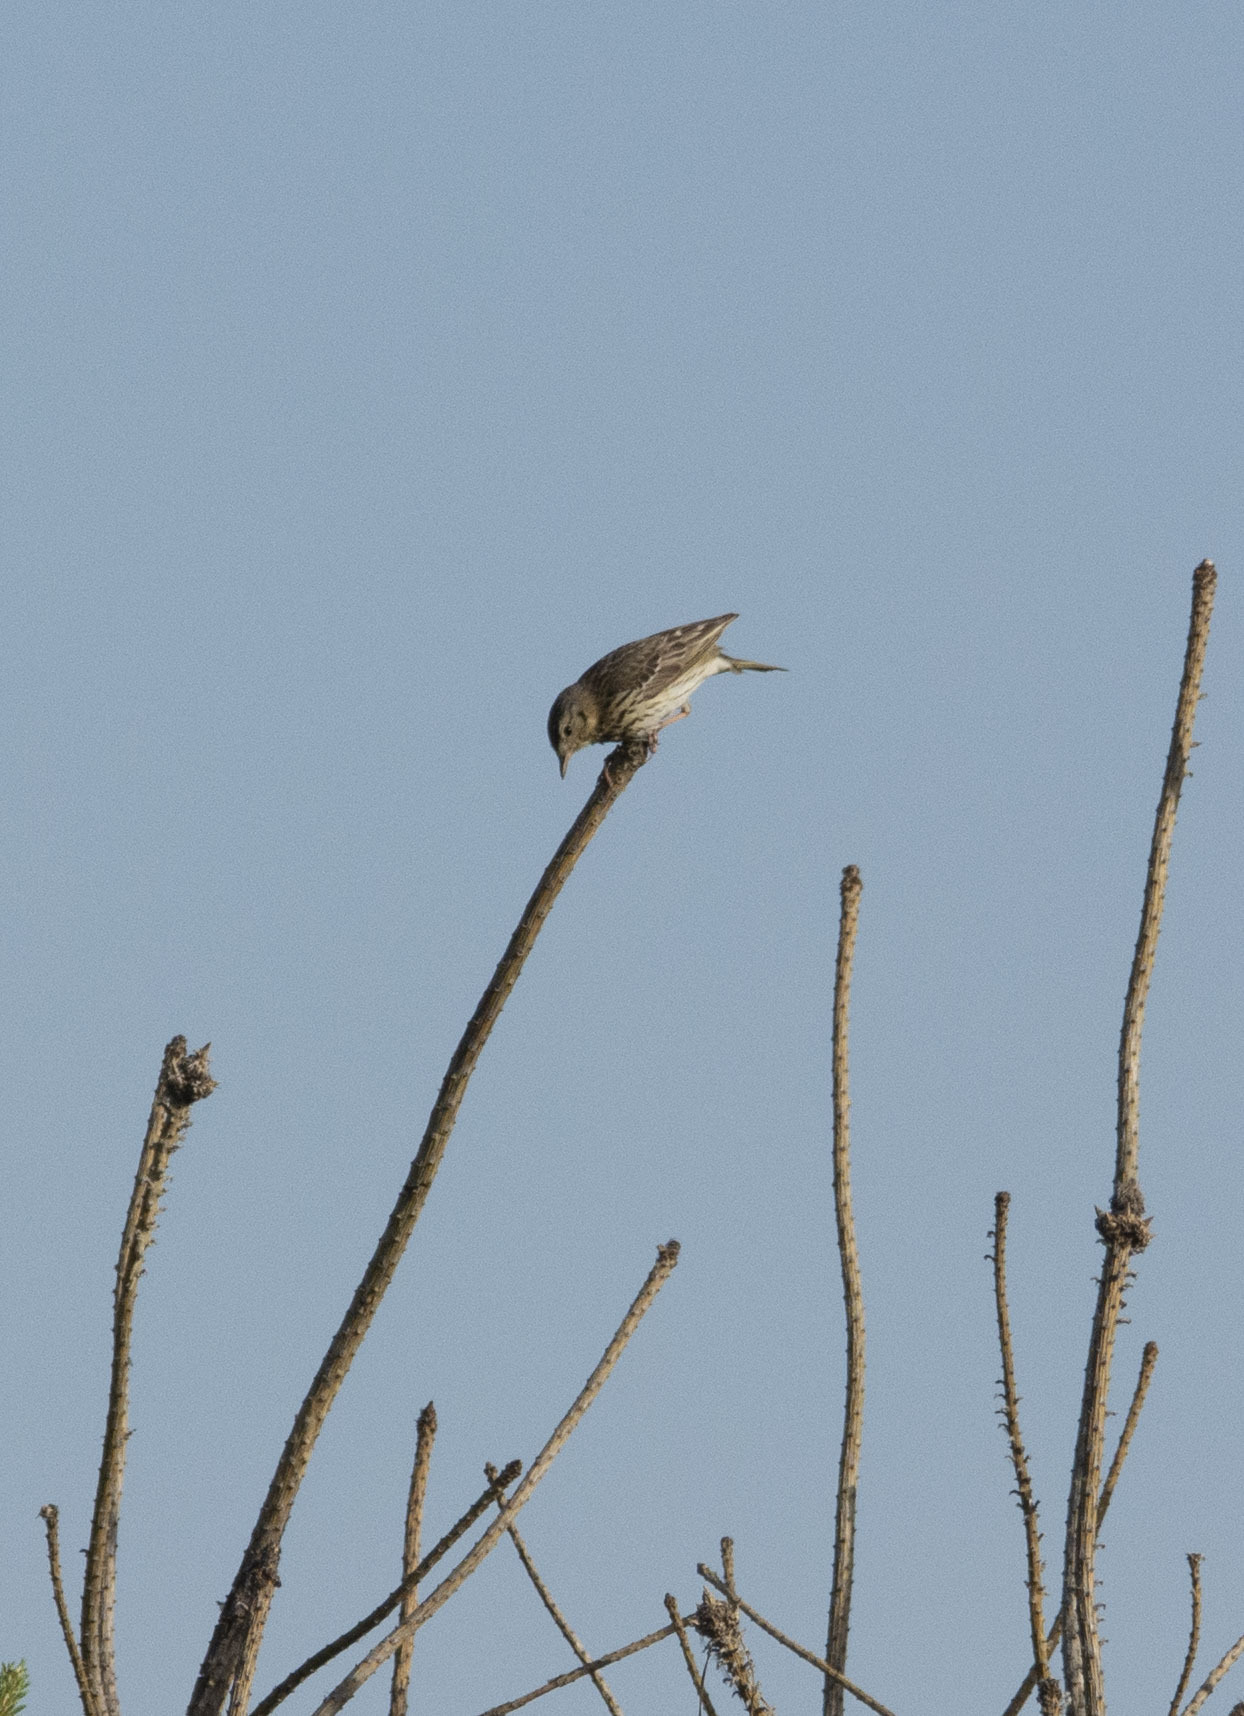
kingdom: Animalia
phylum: Chordata
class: Aves
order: Passeriformes
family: Motacillidae
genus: Anthus
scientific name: Anthus trivialis
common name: Tree pipit
